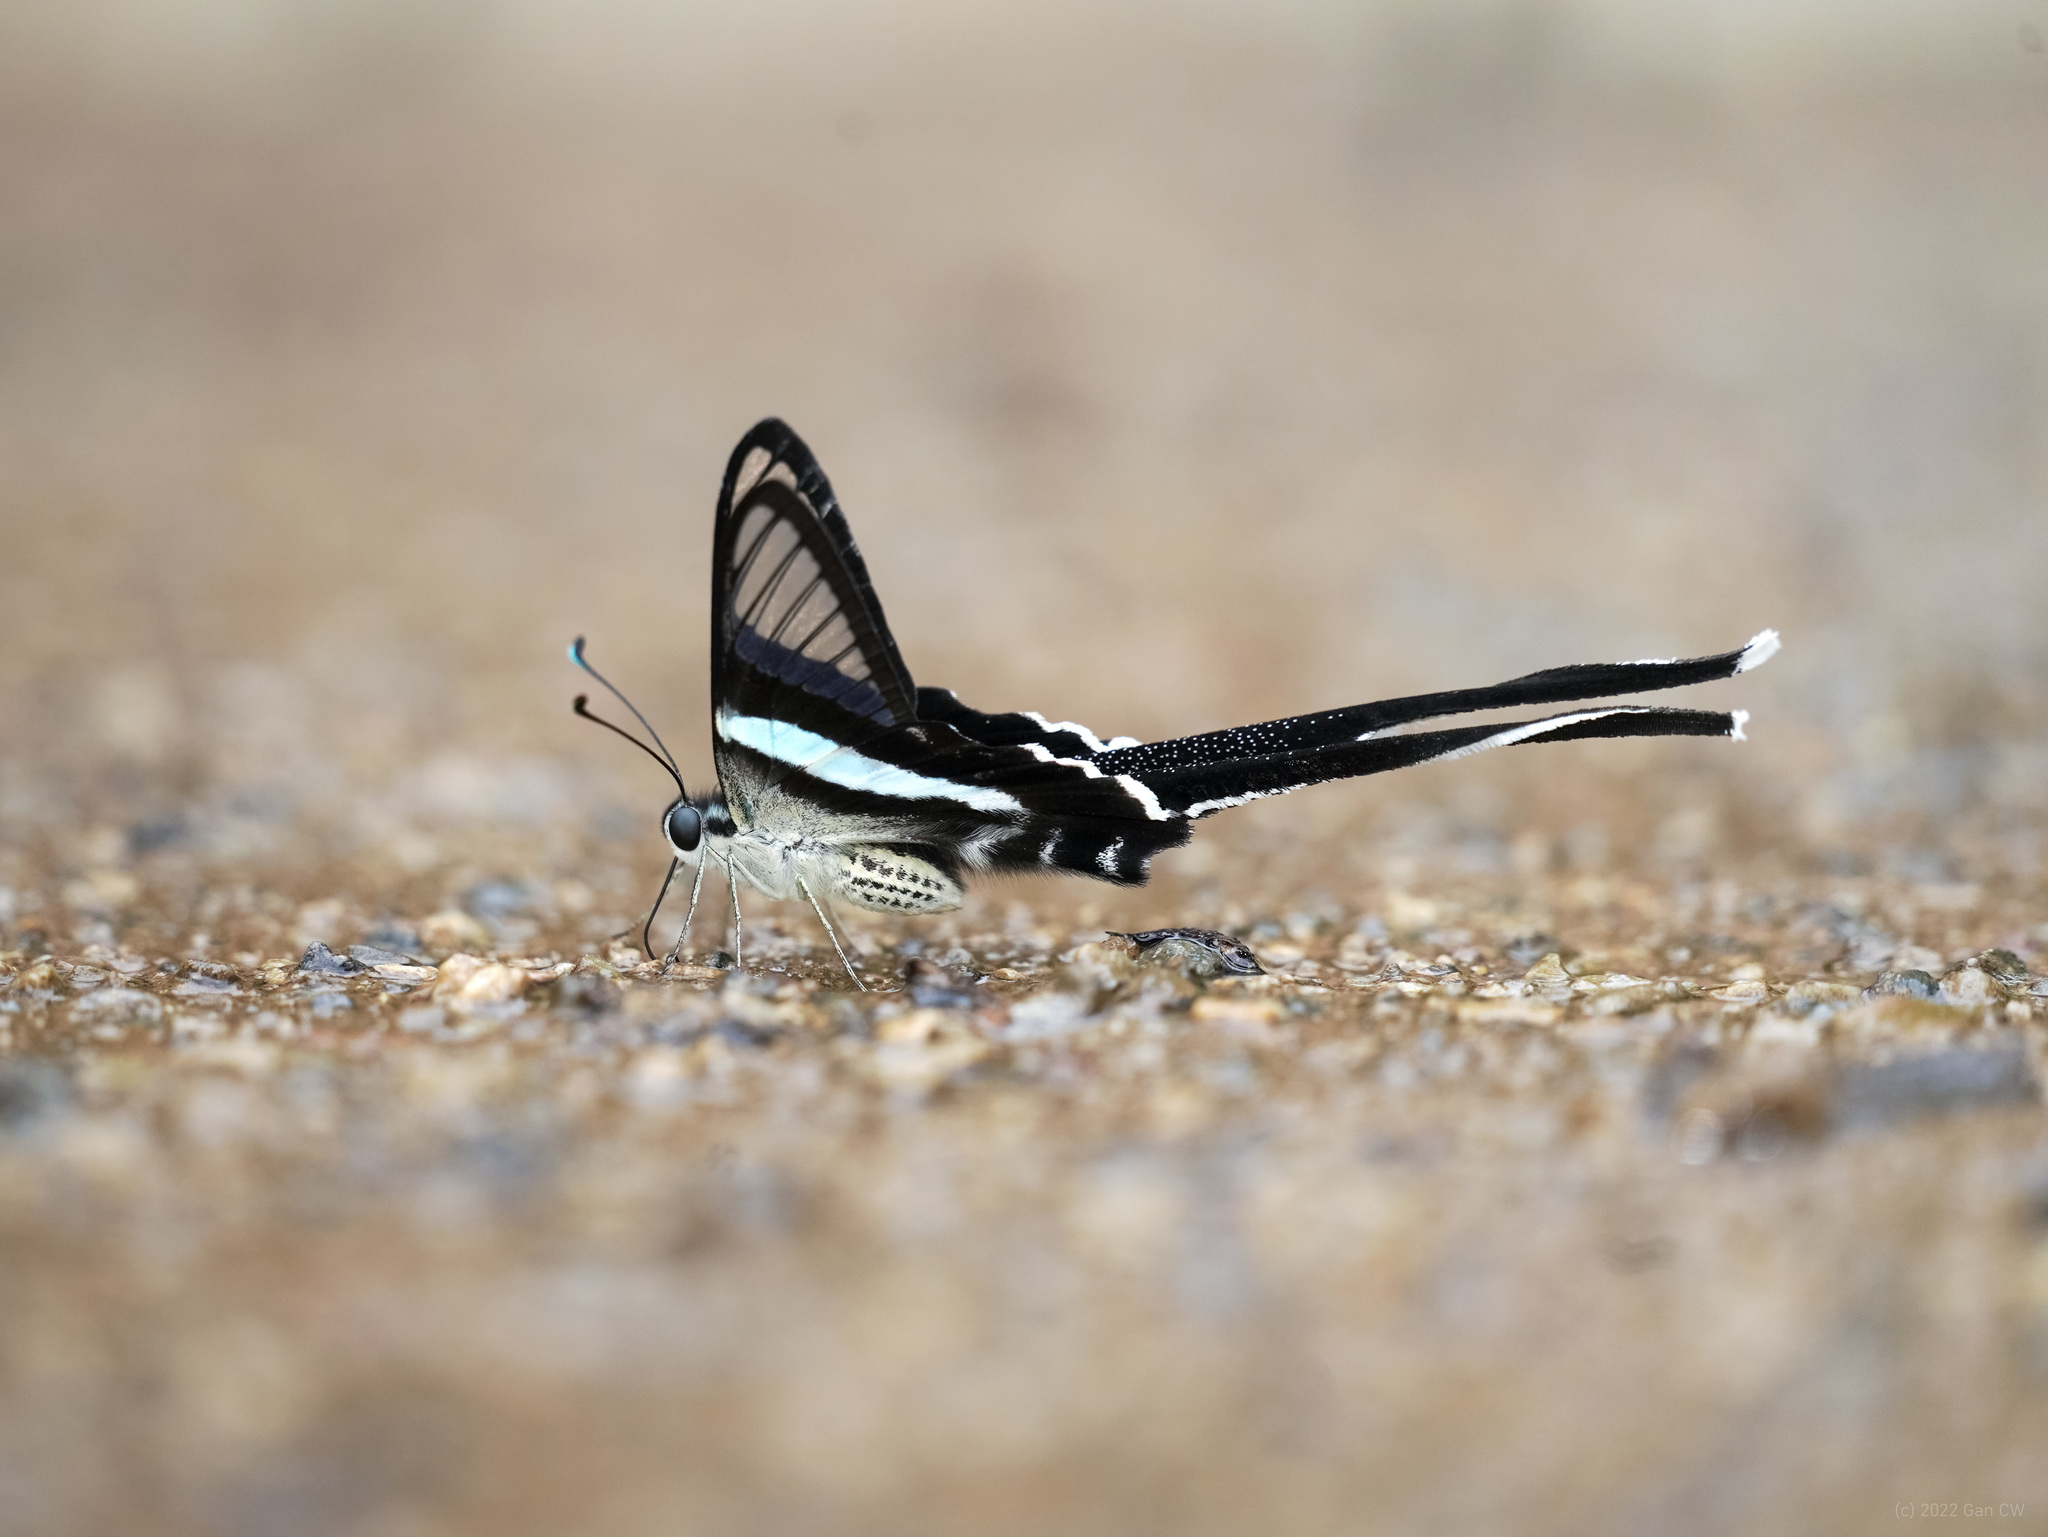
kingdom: Animalia
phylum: Arthropoda
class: Insecta
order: Lepidoptera
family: Papilionidae
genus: Lamproptera
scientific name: Lamproptera meges
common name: Green dragontail
